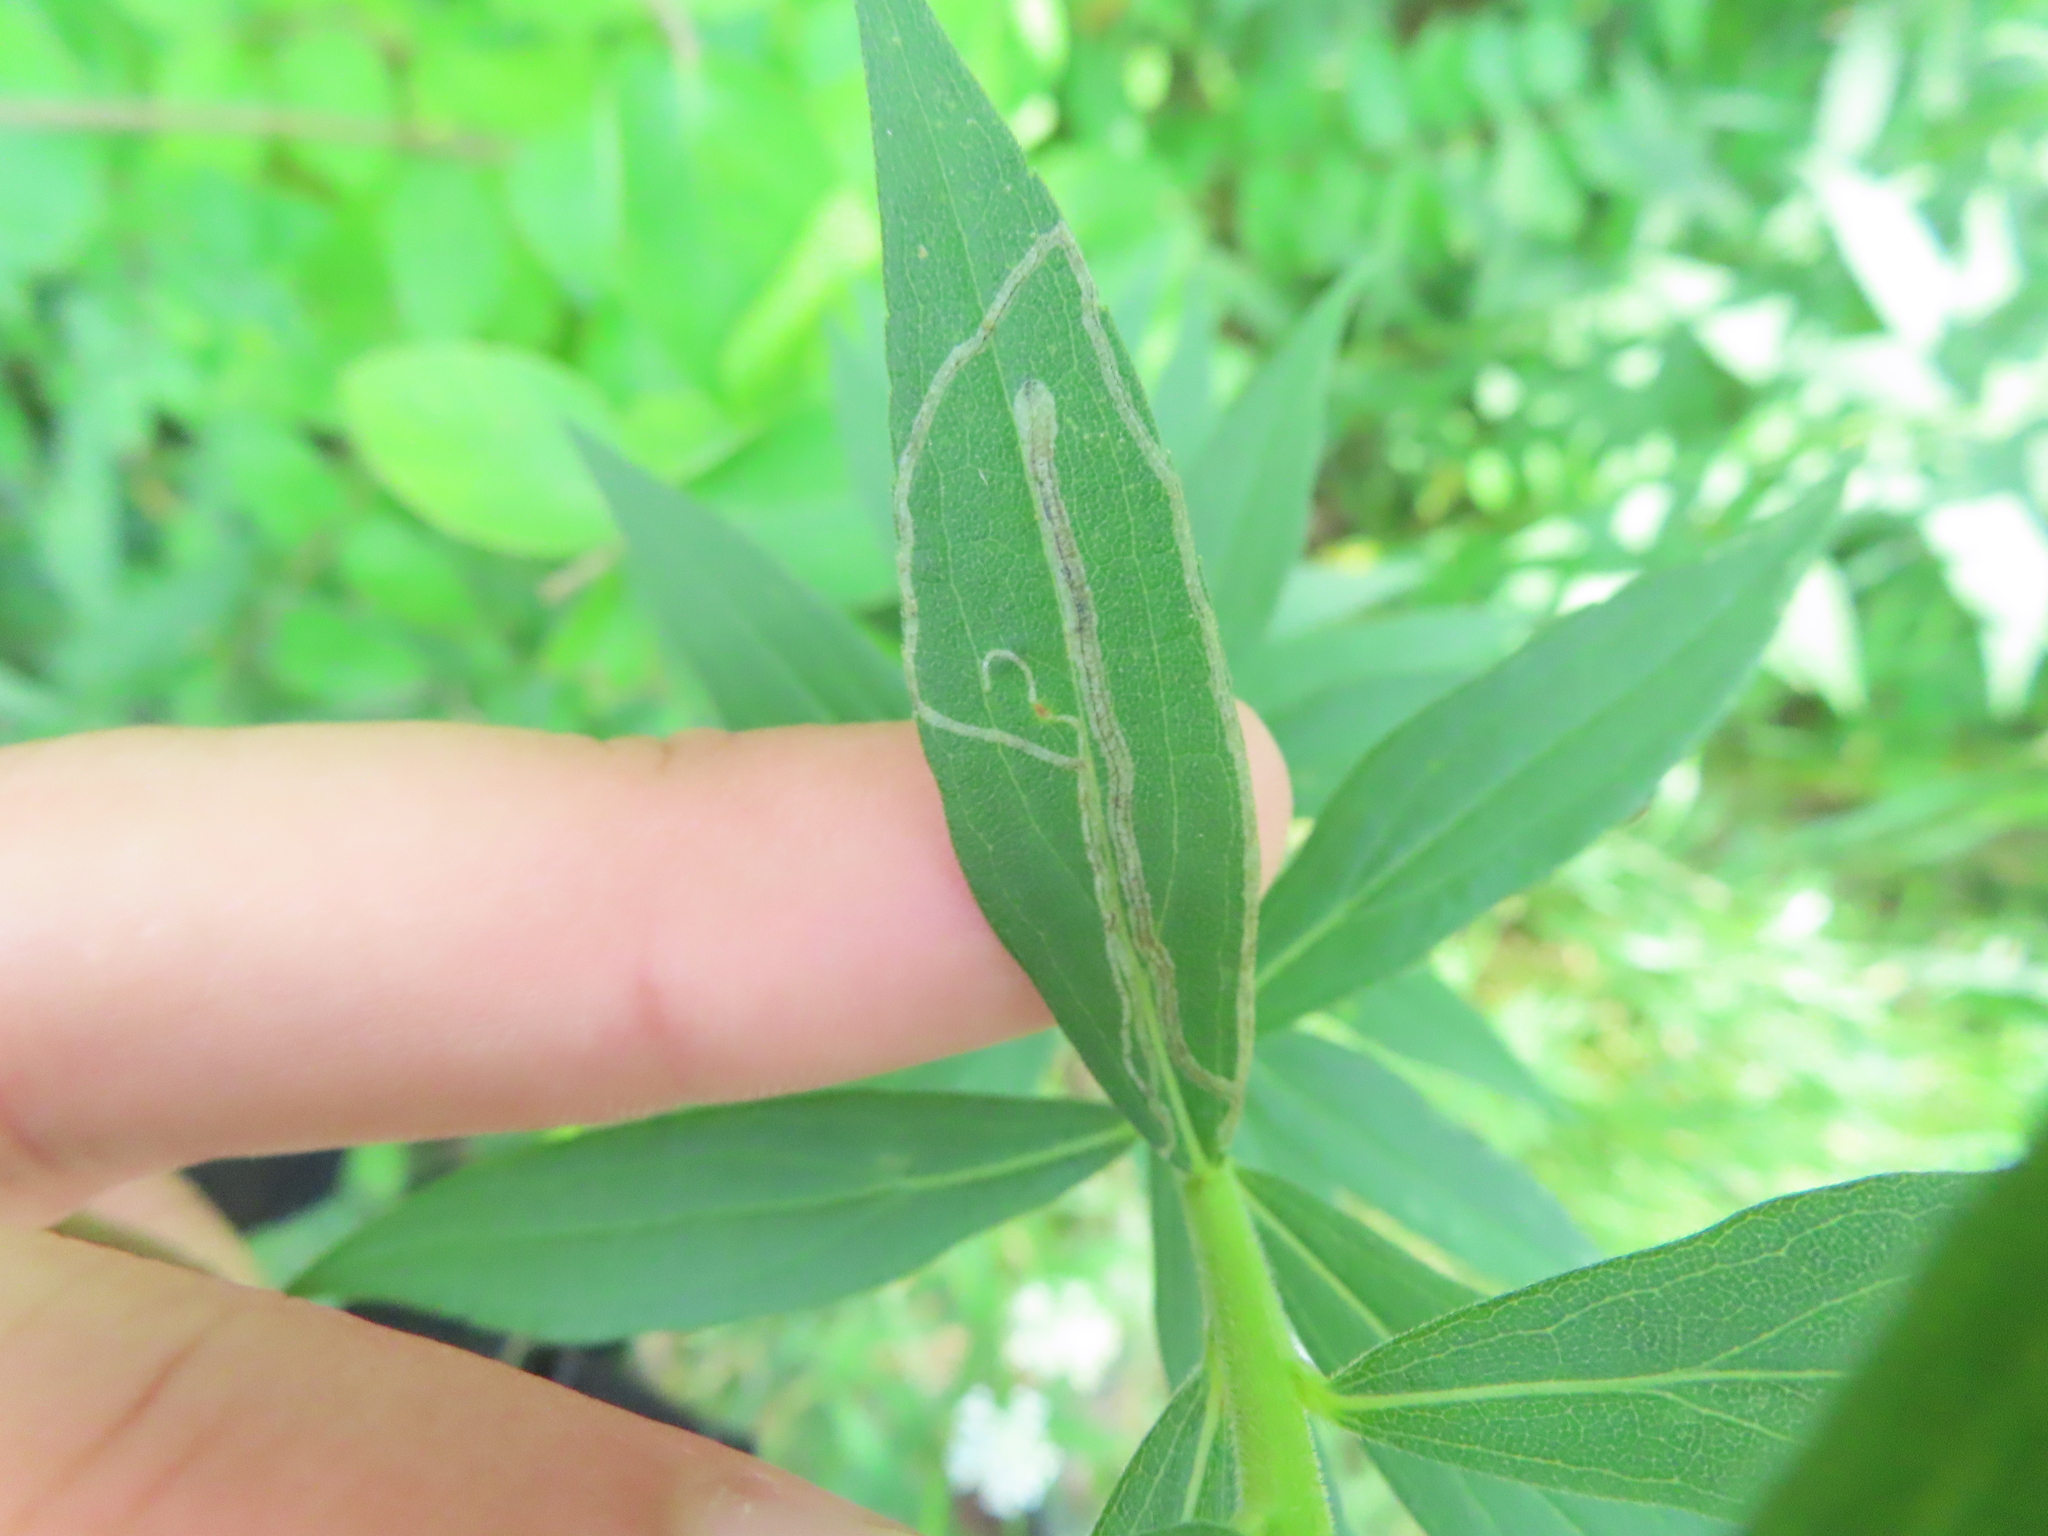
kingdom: Animalia
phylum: Arthropoda
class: Insecta
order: Diptera
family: Agromyzidae
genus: Ophiomyia
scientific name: Ophiomyia maura
